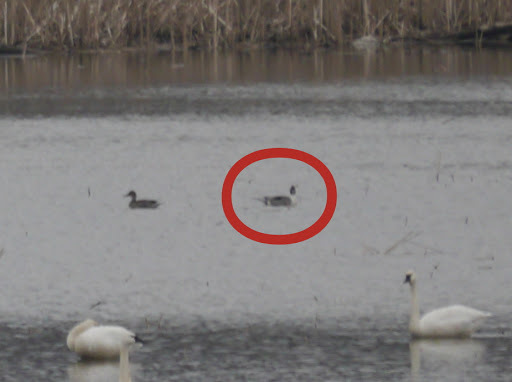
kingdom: Animalia
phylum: Chordata
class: Aves
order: Anseriformes
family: Anatidae
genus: Anas
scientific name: Anas acuta
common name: Northern pintail
